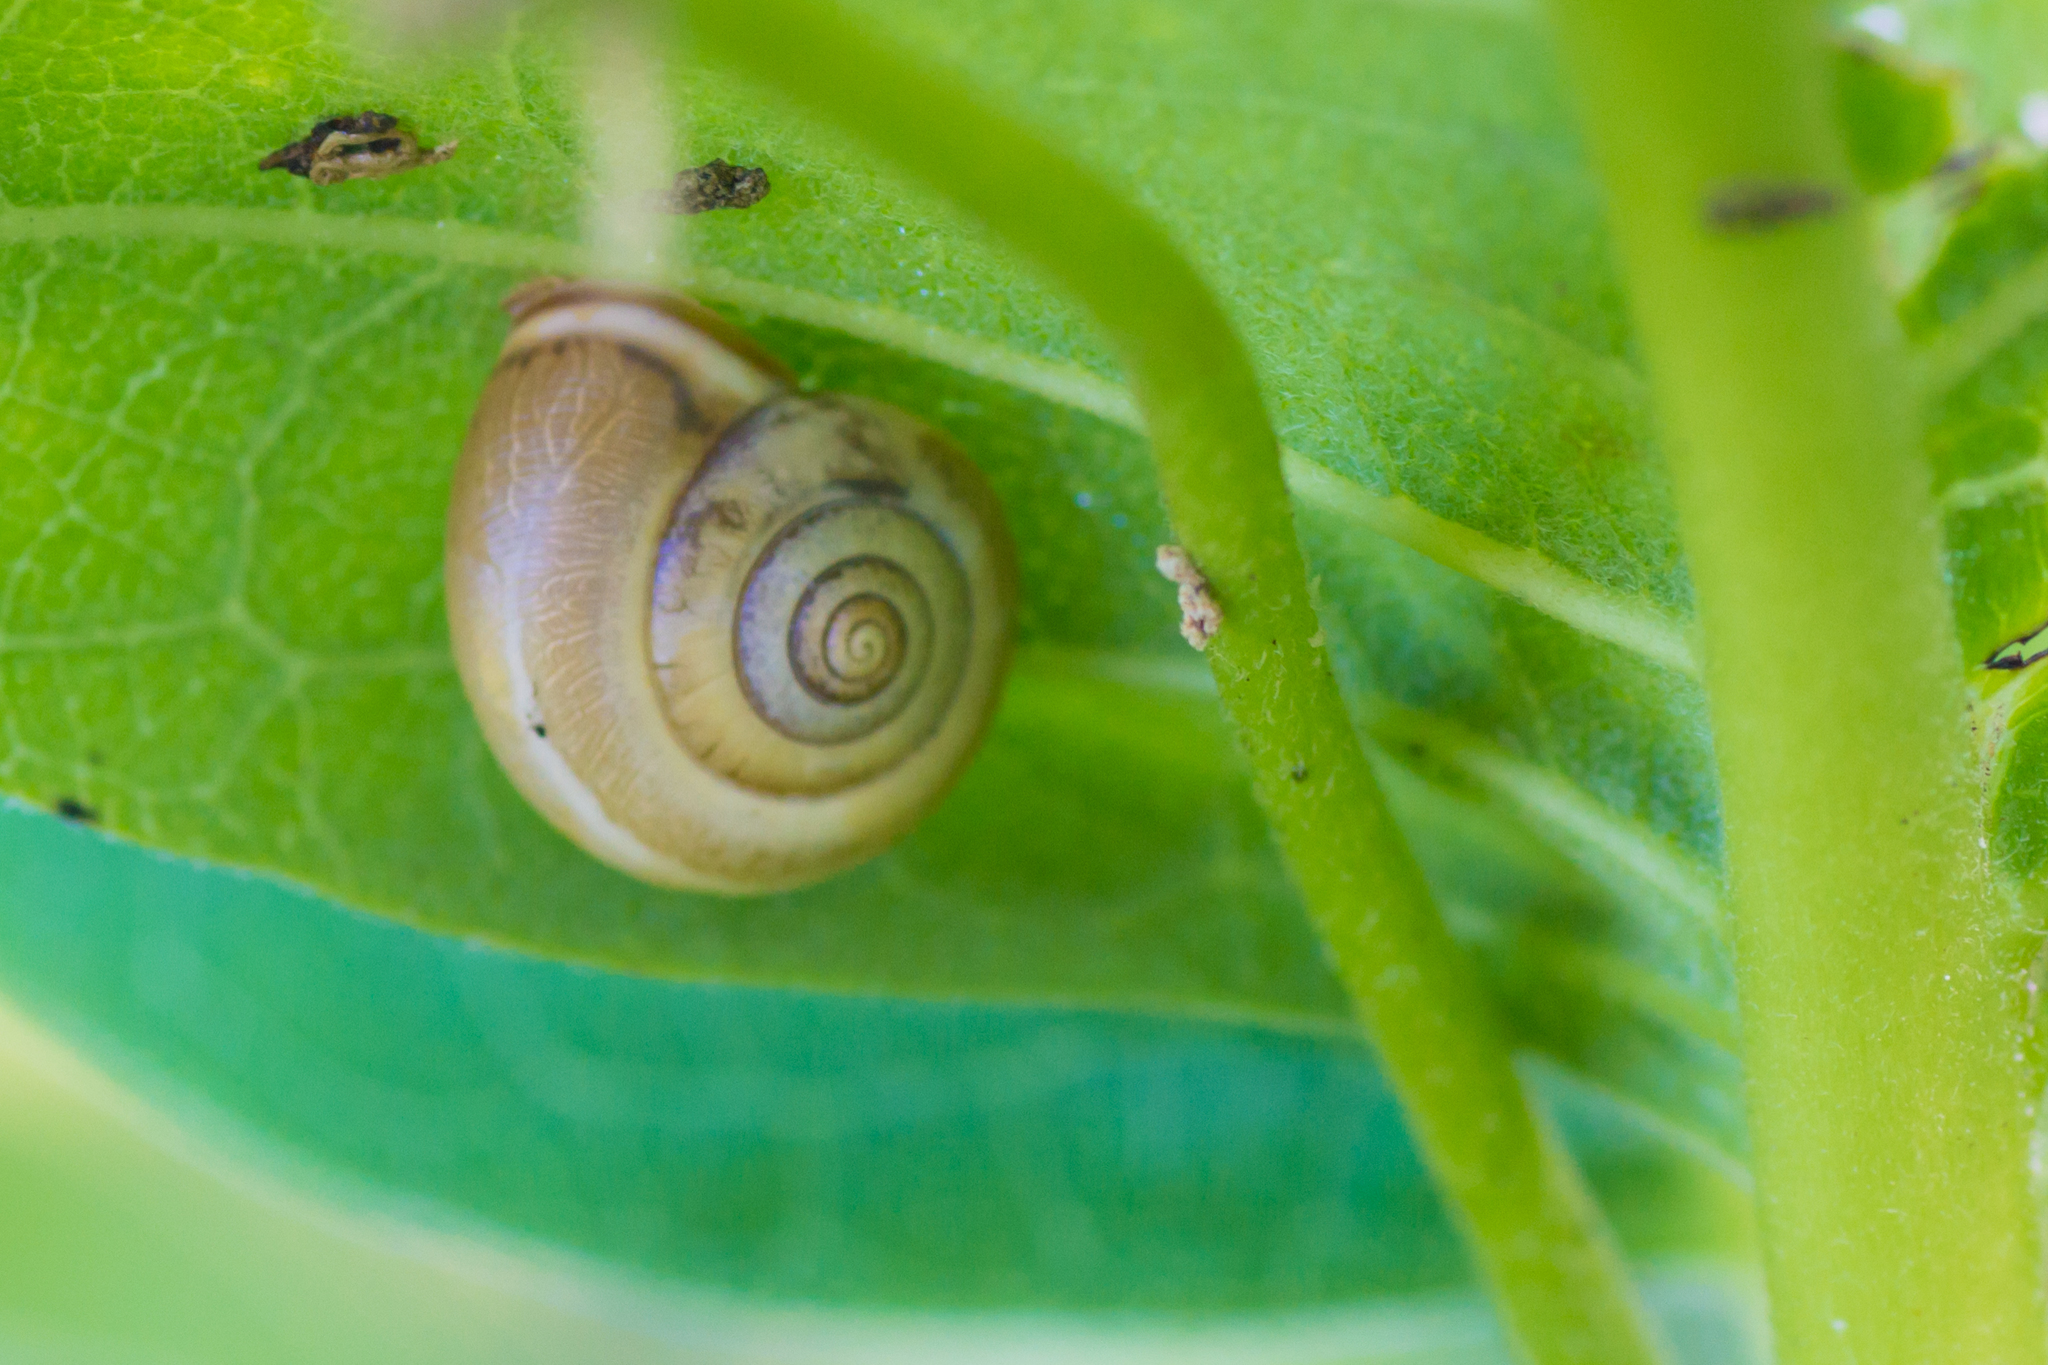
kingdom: Animalia
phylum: Mollusca
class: Gastropoda
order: Stylommatophora
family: Hygromiidae
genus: Monacha
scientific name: Monacha cartusiana
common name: Carthusian snail
